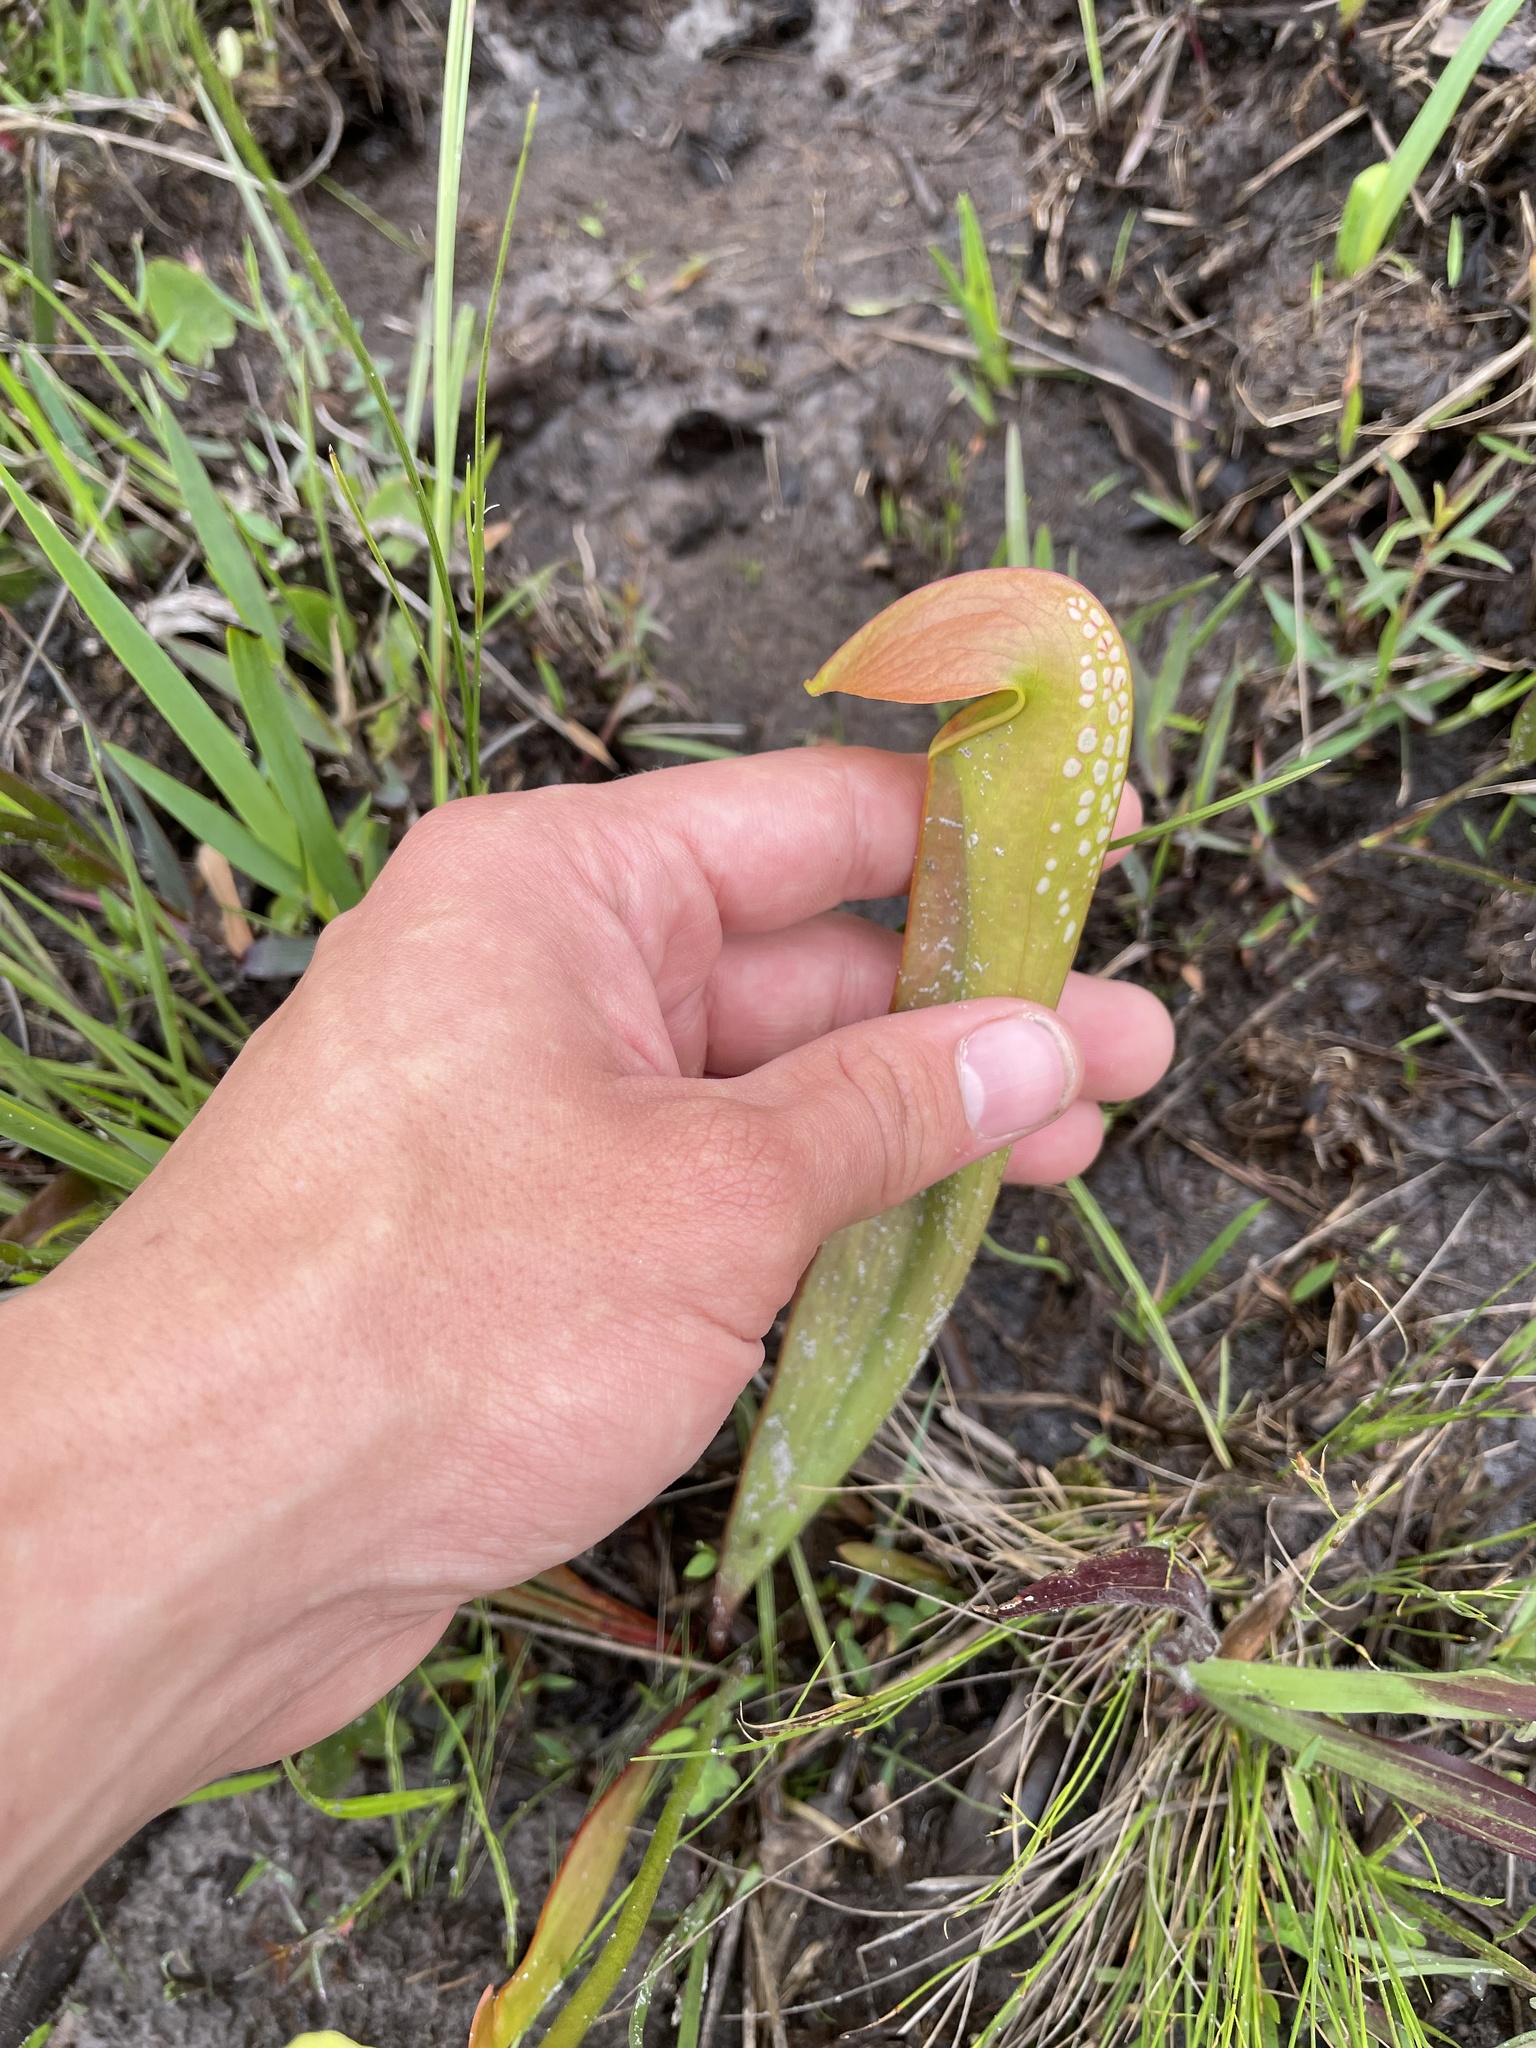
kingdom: Plantae
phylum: Tracheophyta
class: Magnoliopsida
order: Ericales
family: Sarraceniaceae
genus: Sarracenia
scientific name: Sarracenia minor
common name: Rainhat-trumpet
